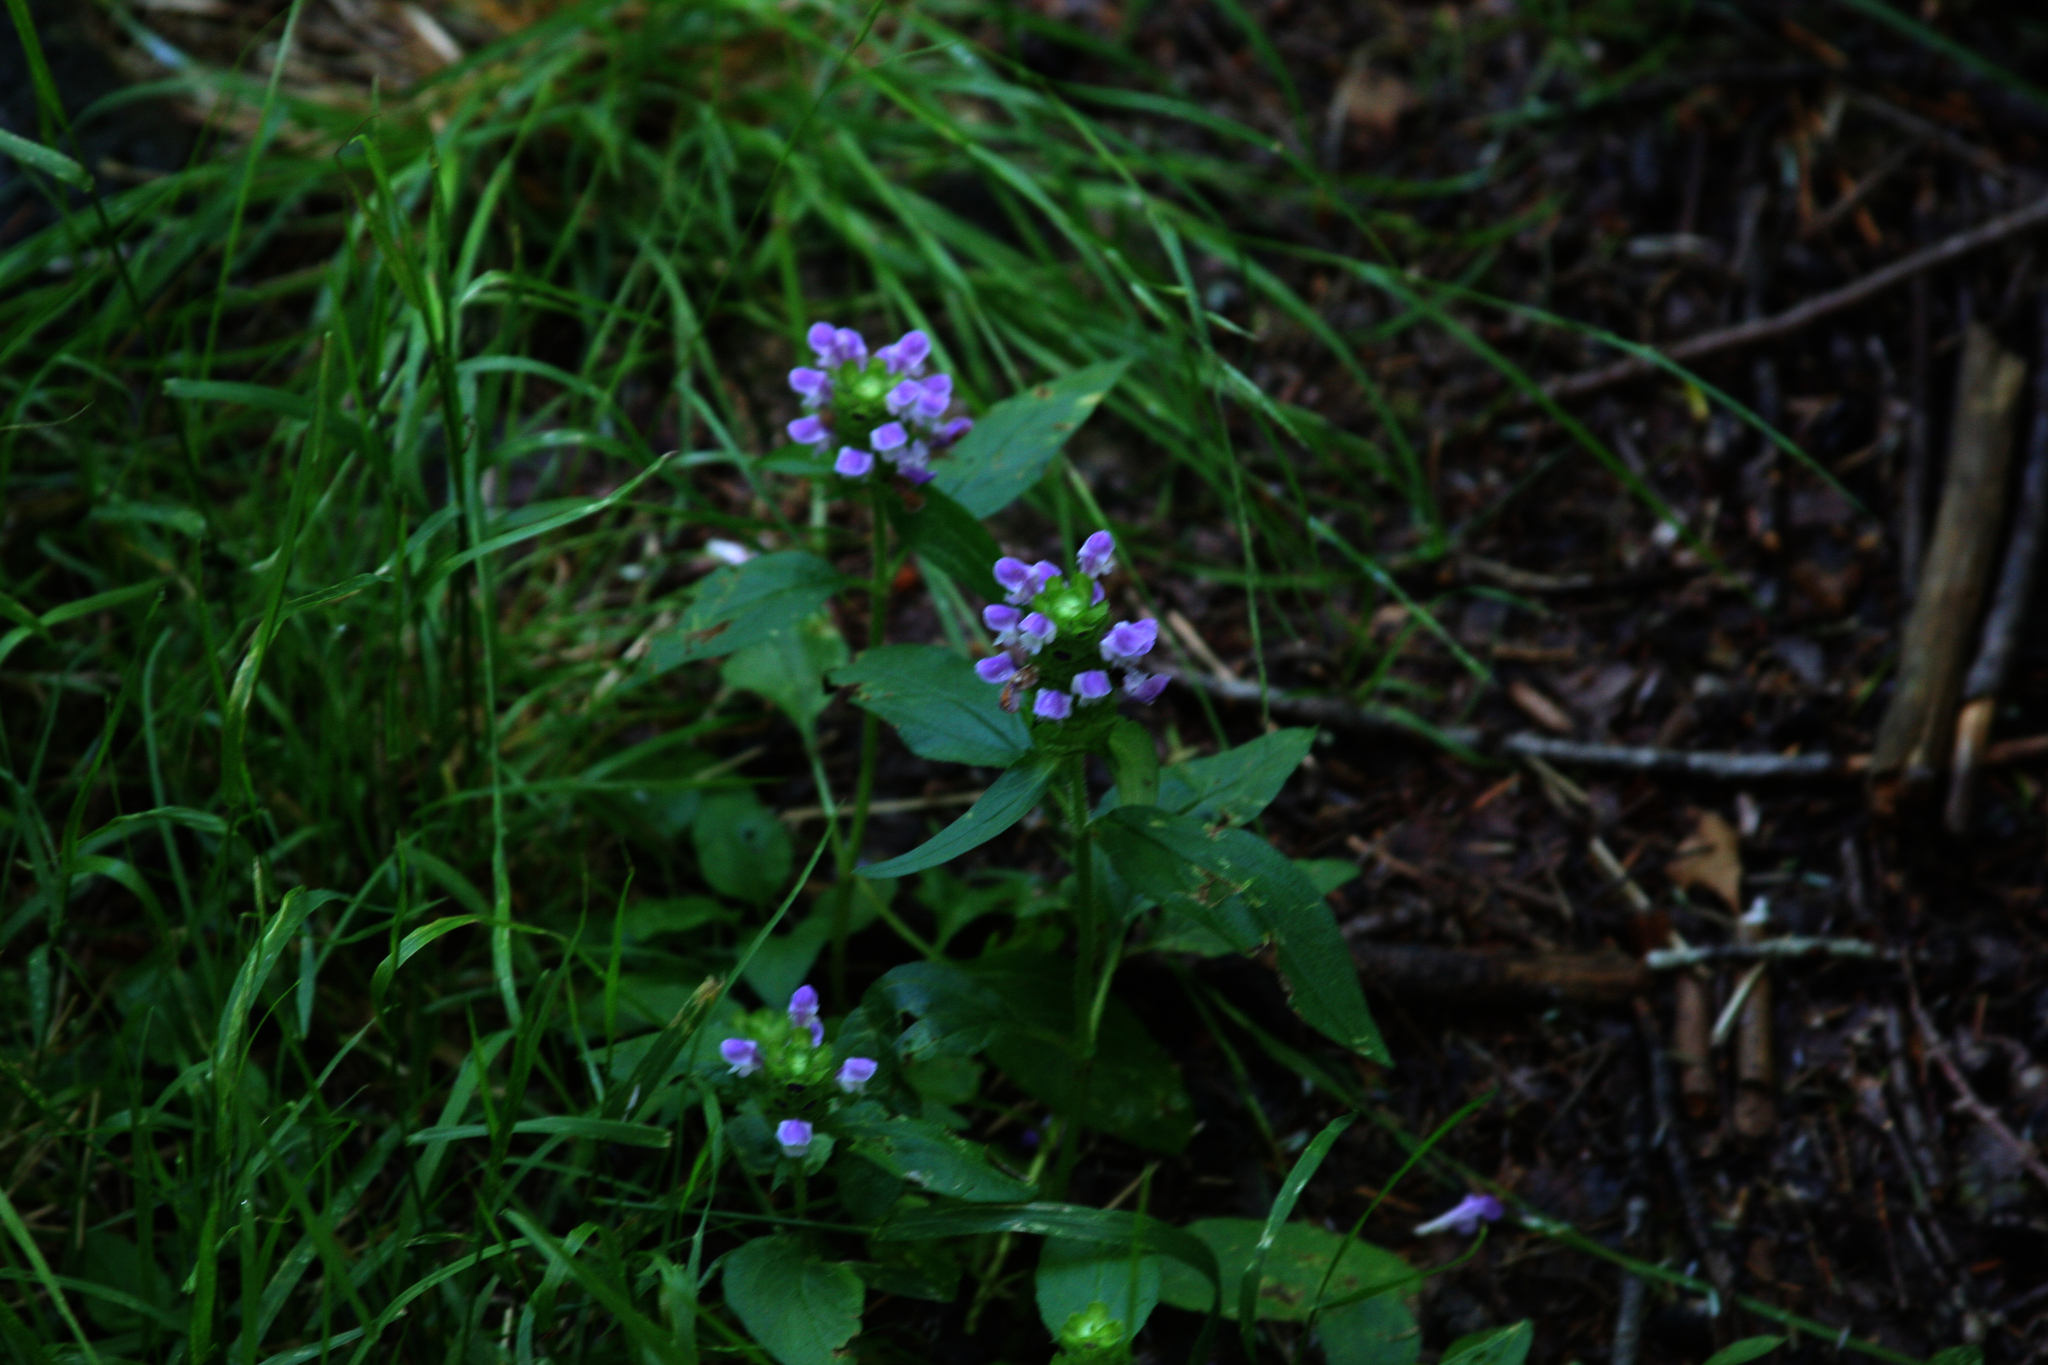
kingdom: Plantae
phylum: Tracheophyta
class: Magnoliopsida
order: Lamiales
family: Lamiaceae
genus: Prunella
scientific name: Prunella vulgaris
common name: Heal-all
